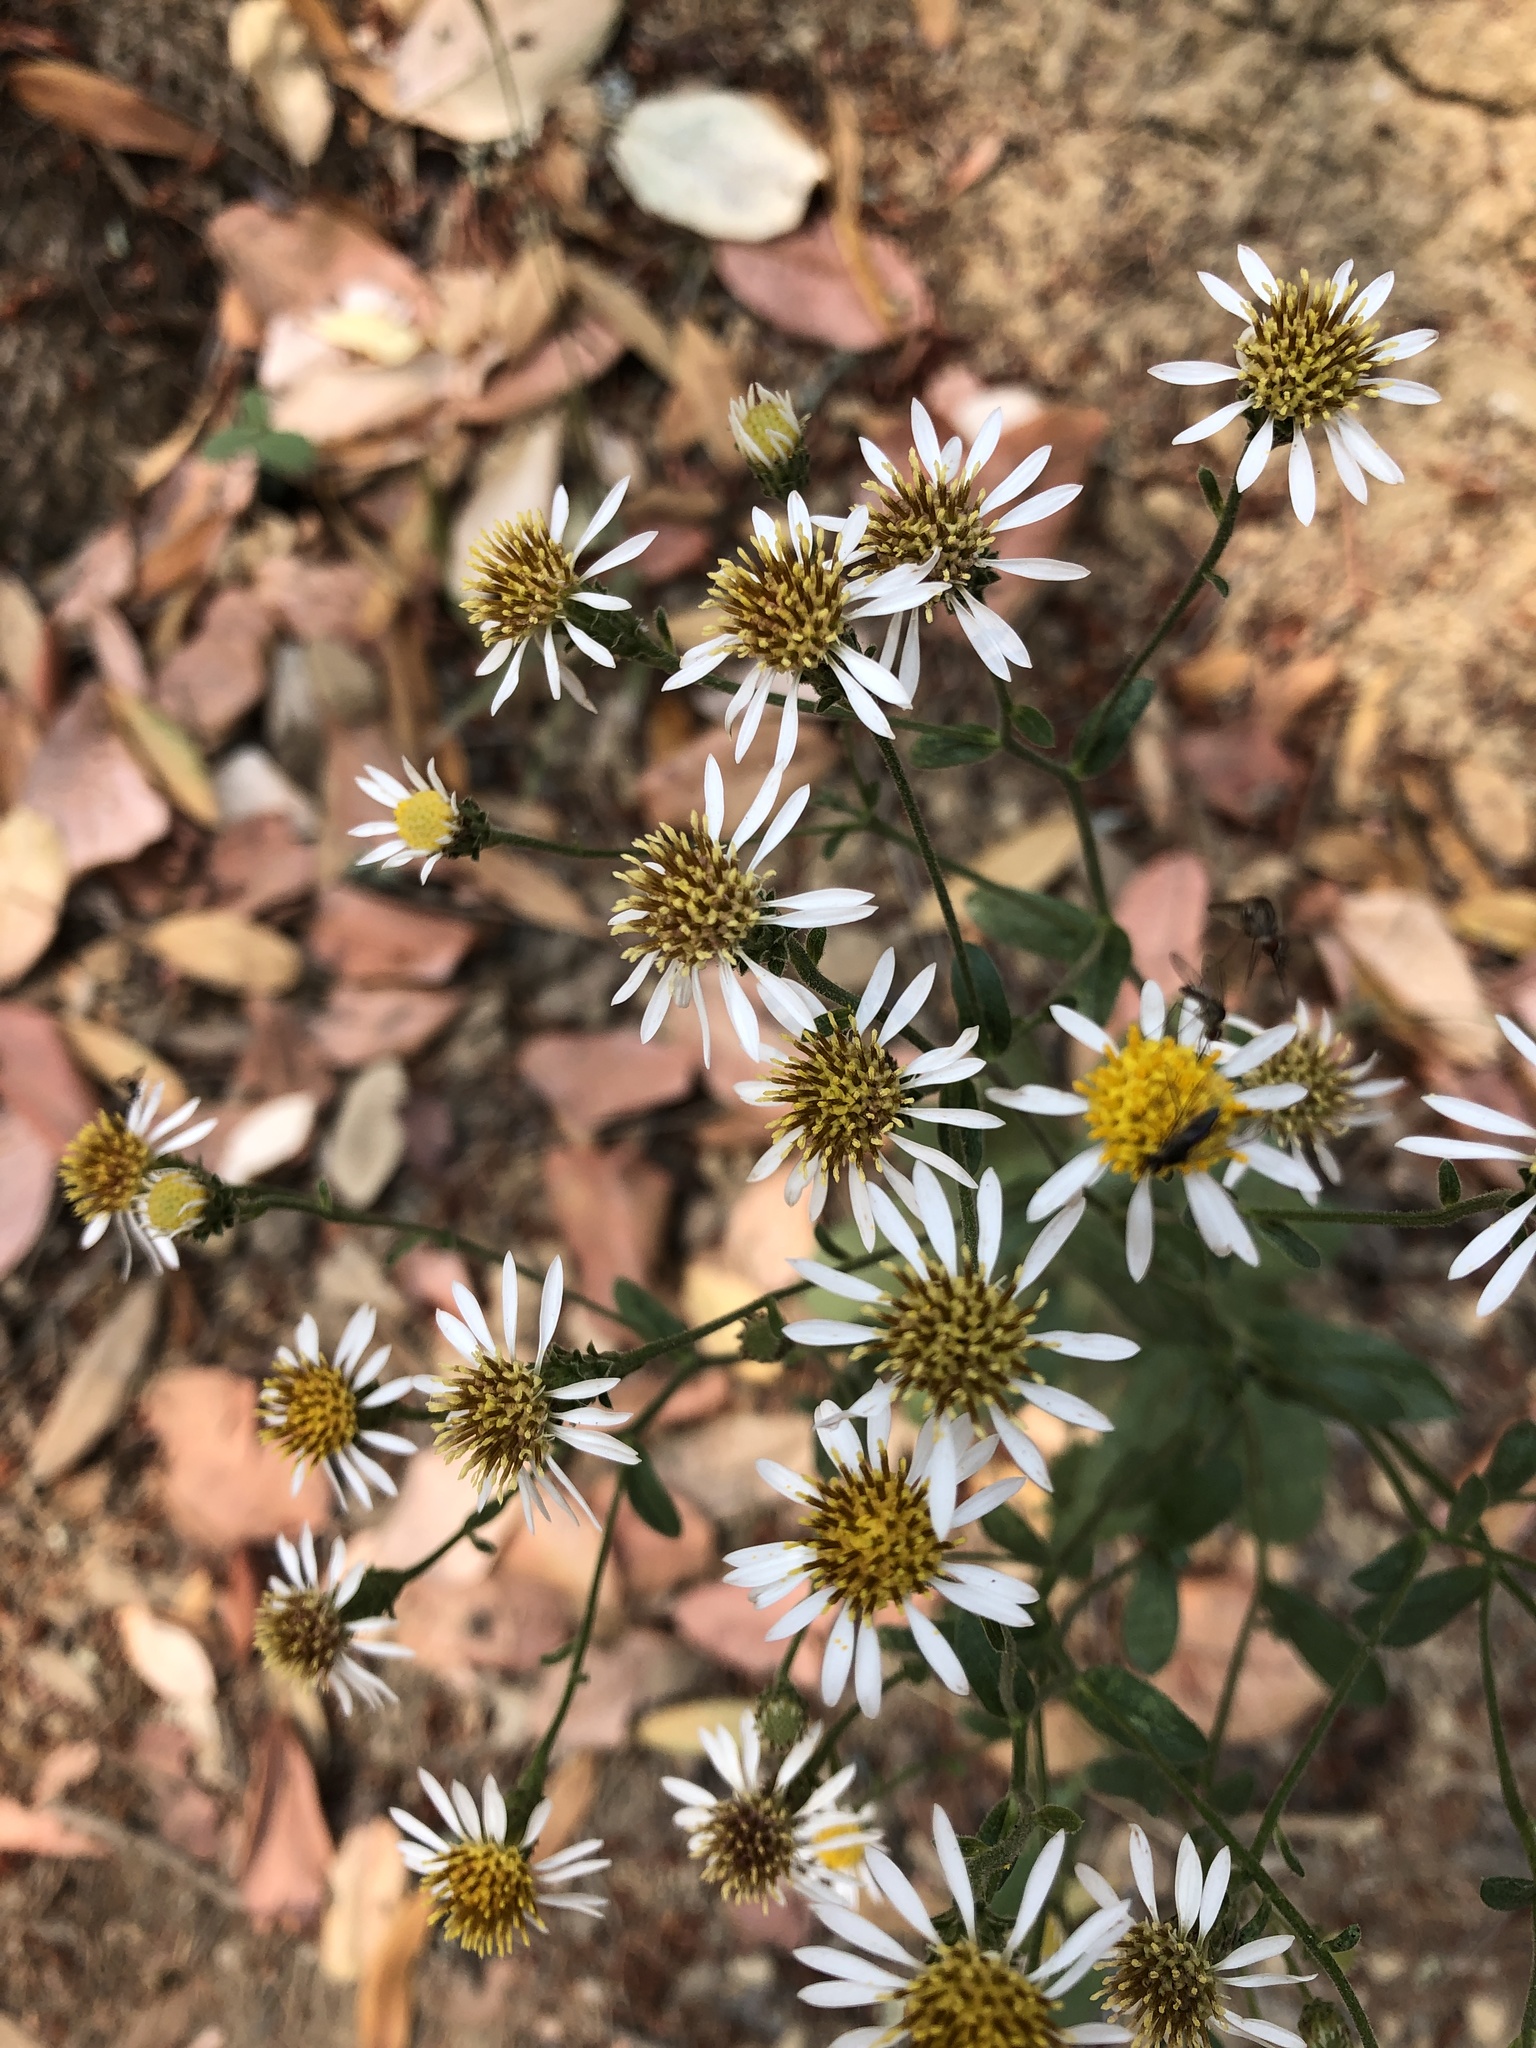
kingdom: Plantae
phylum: Tracheophyta
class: Magnoliopsida
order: Asterales
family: Asteraceae
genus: Eurybia
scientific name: Eurybia radulina
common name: Rough-leaved aster
